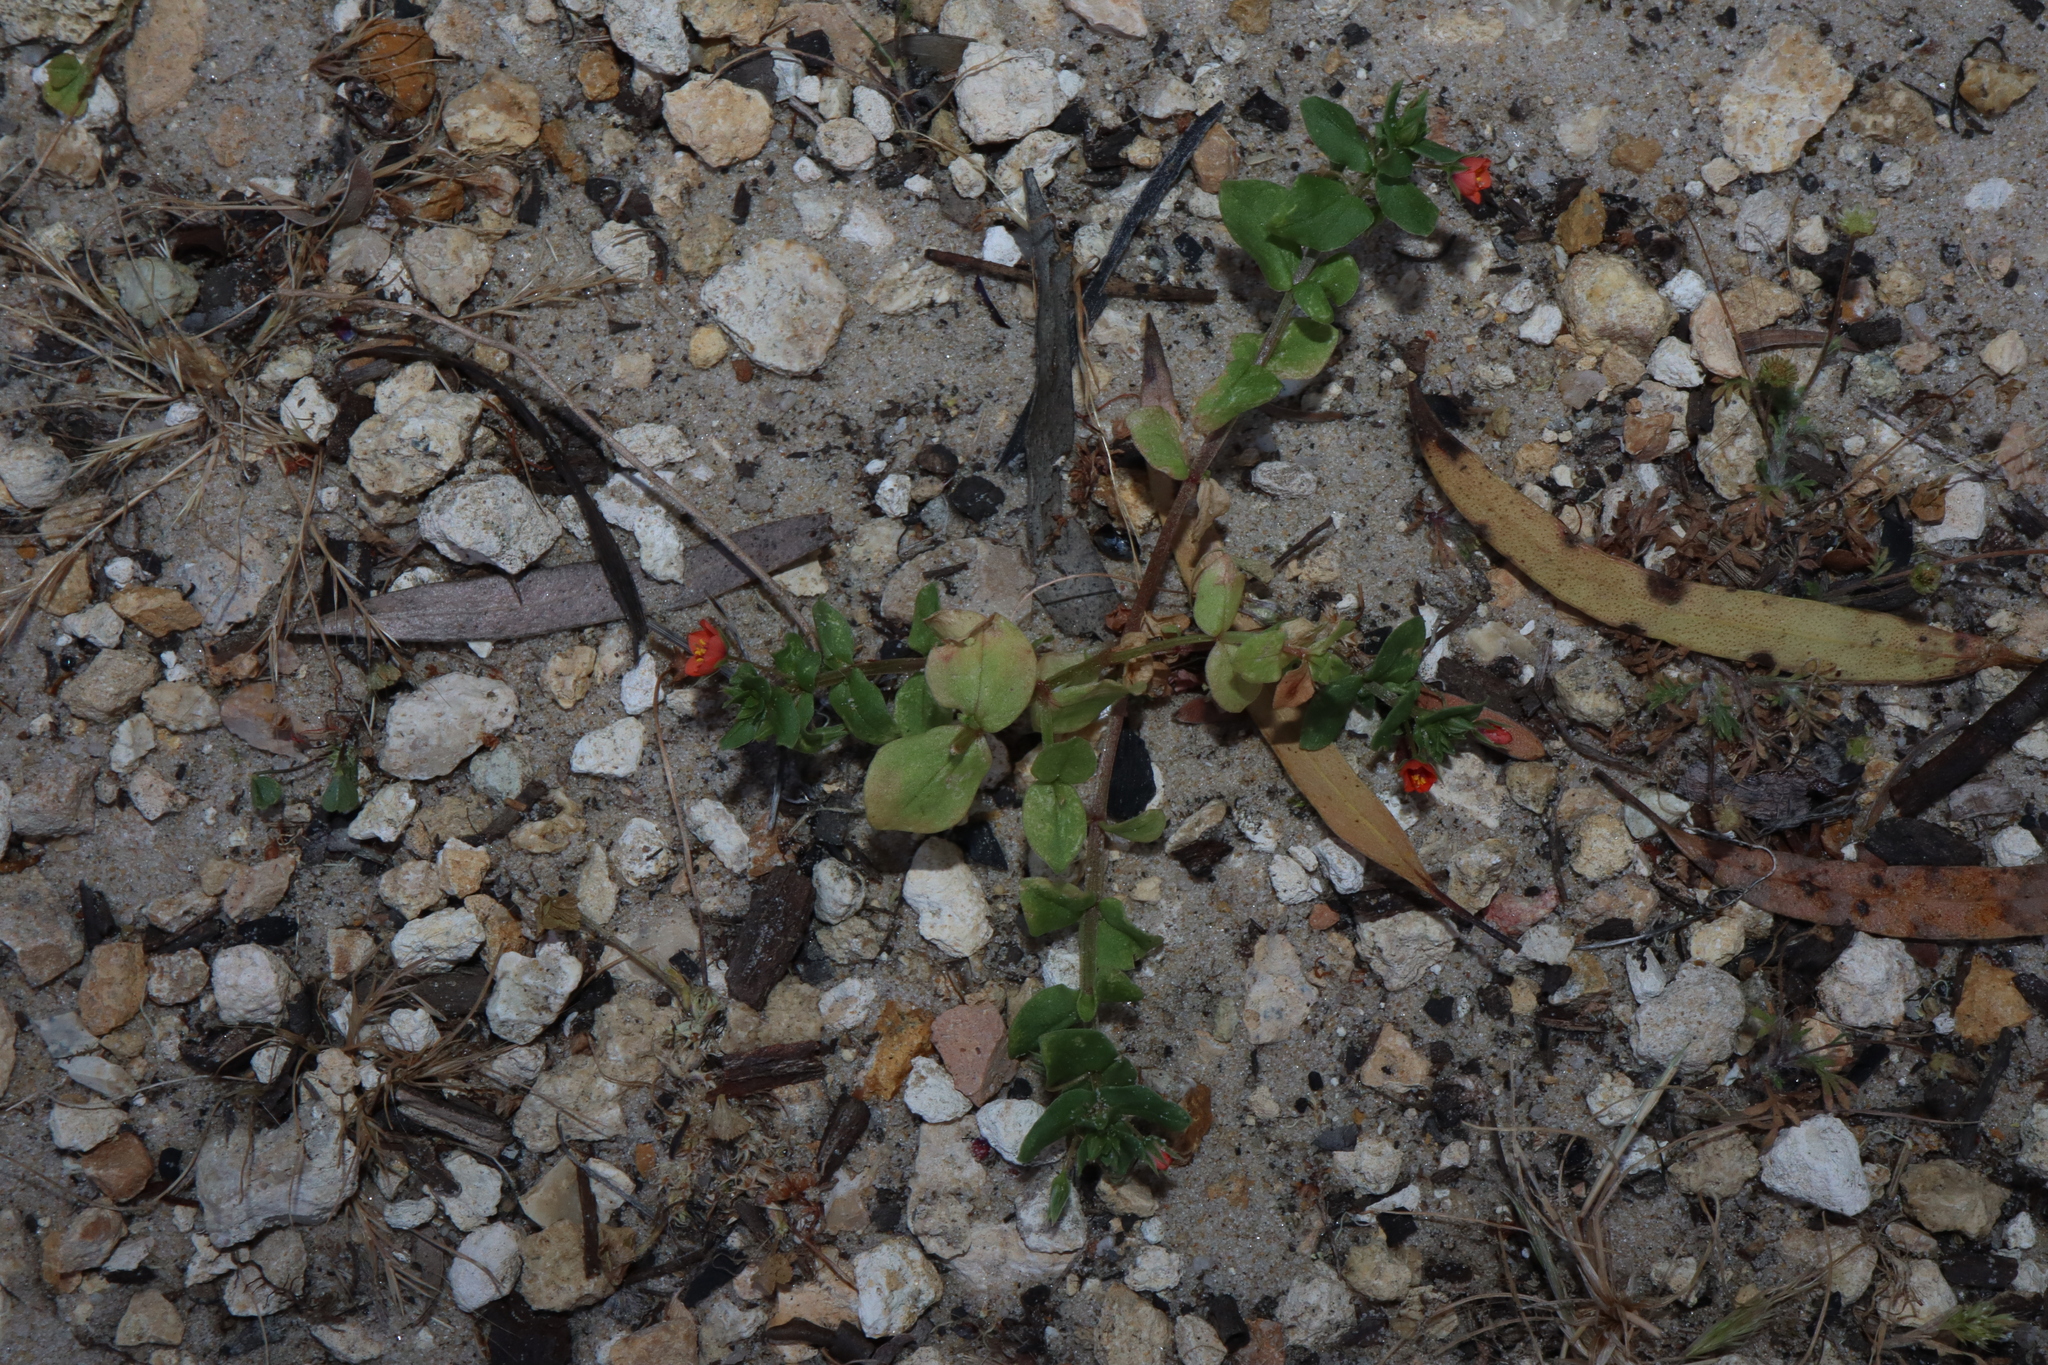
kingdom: Plantae
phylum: Tracheophyta
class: Magnoliopsida
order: Ericales
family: Primulaceae
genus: Lysimachia
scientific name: Lysimachia arvensis
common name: Scarlet pimpernel
